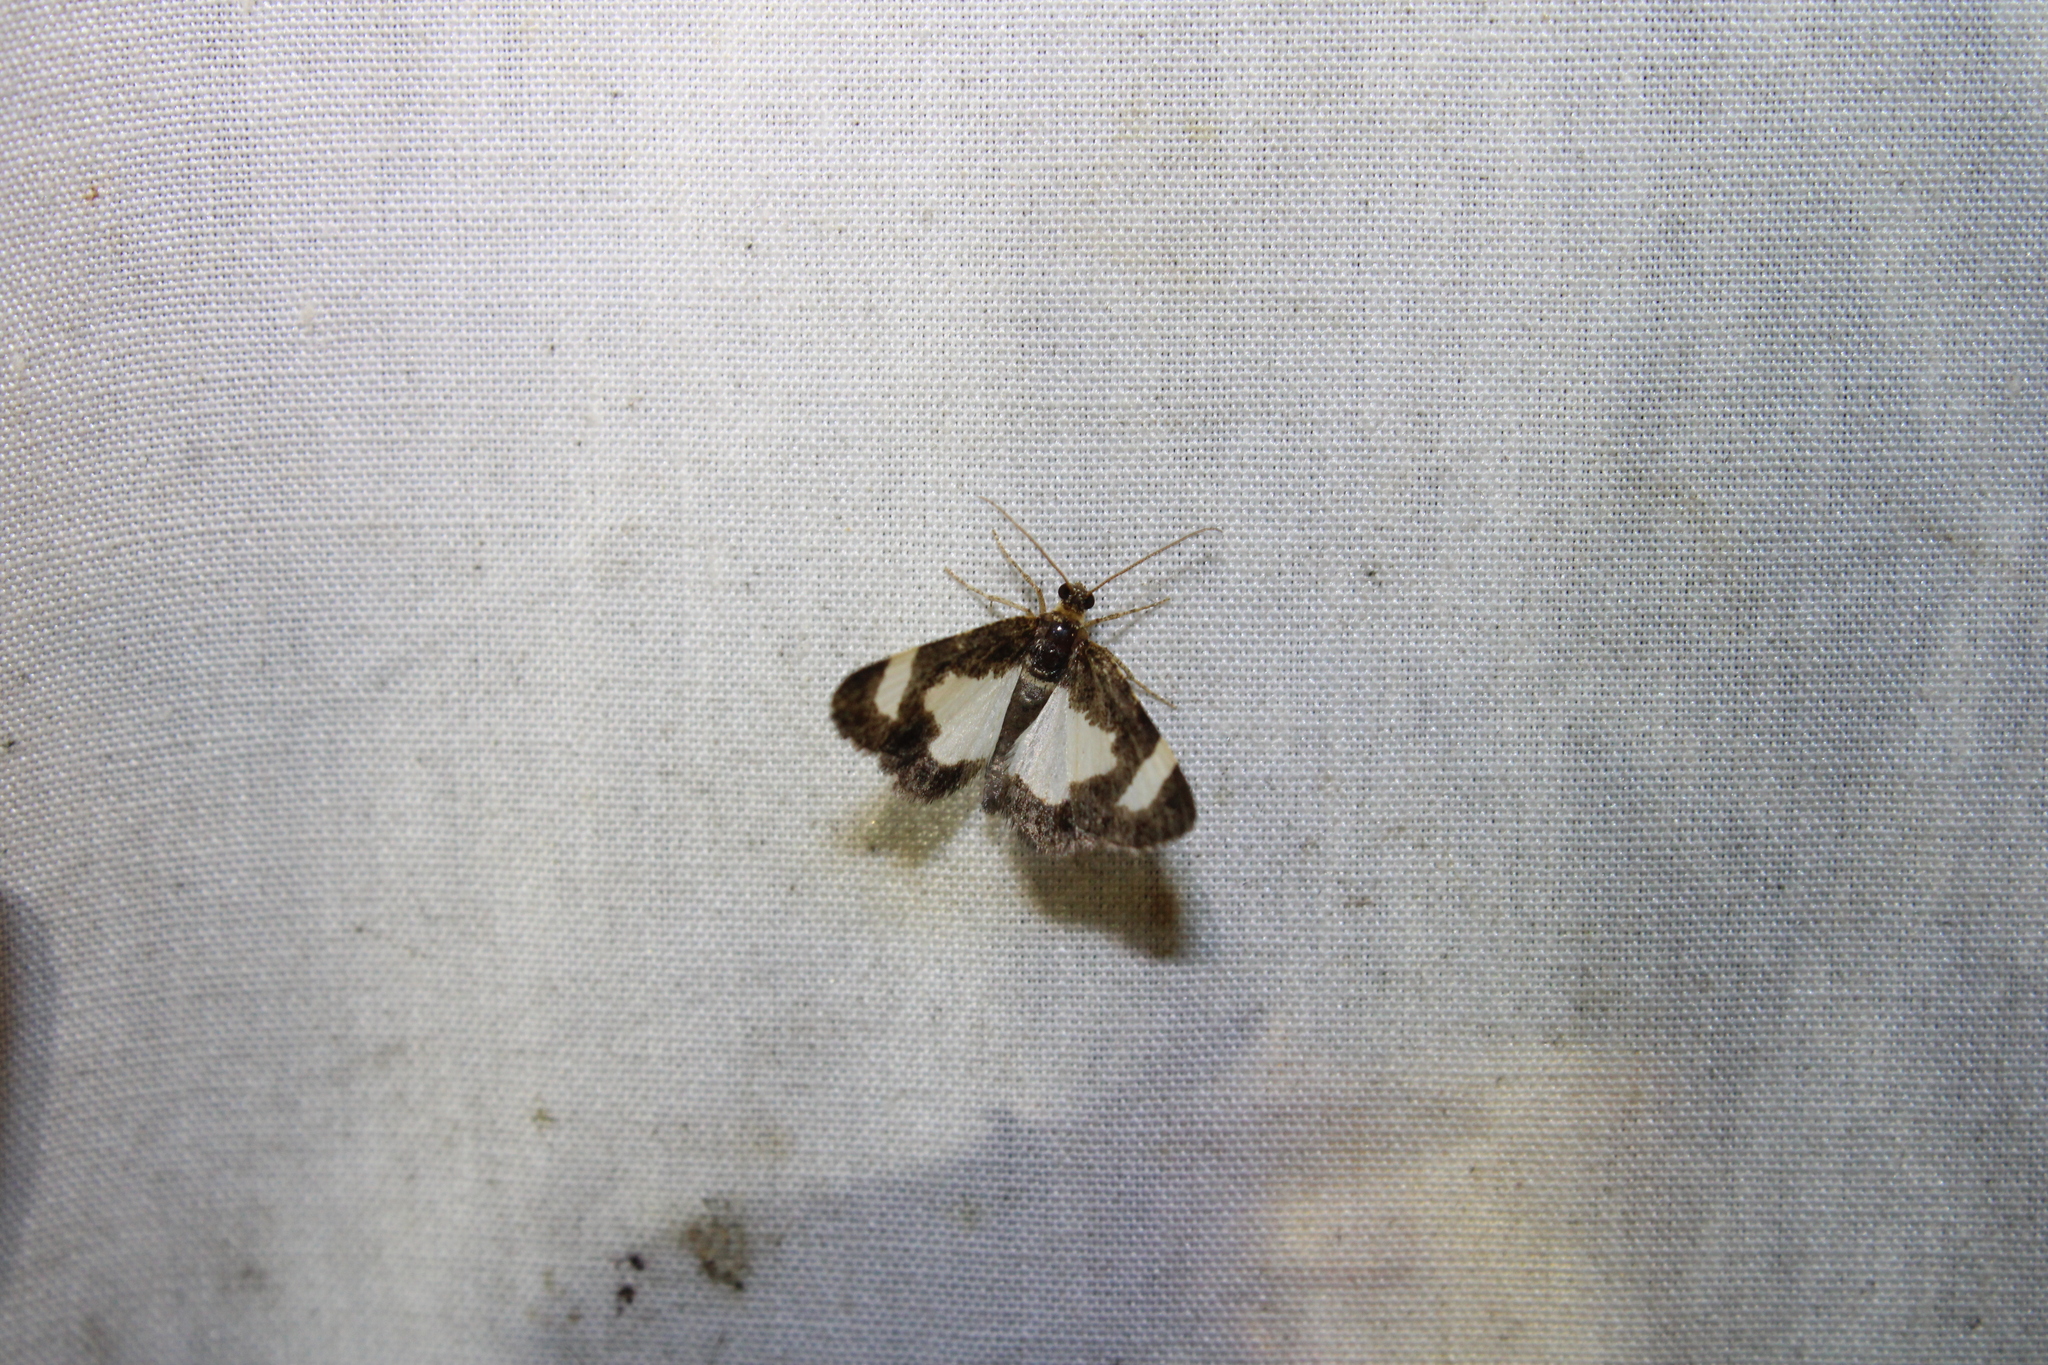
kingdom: Animalia
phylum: Arthropoda
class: Insecta
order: Lepidoptera
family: Geometridae
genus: Heliomata
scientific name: Heliomata cycladata
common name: Common spring moth
